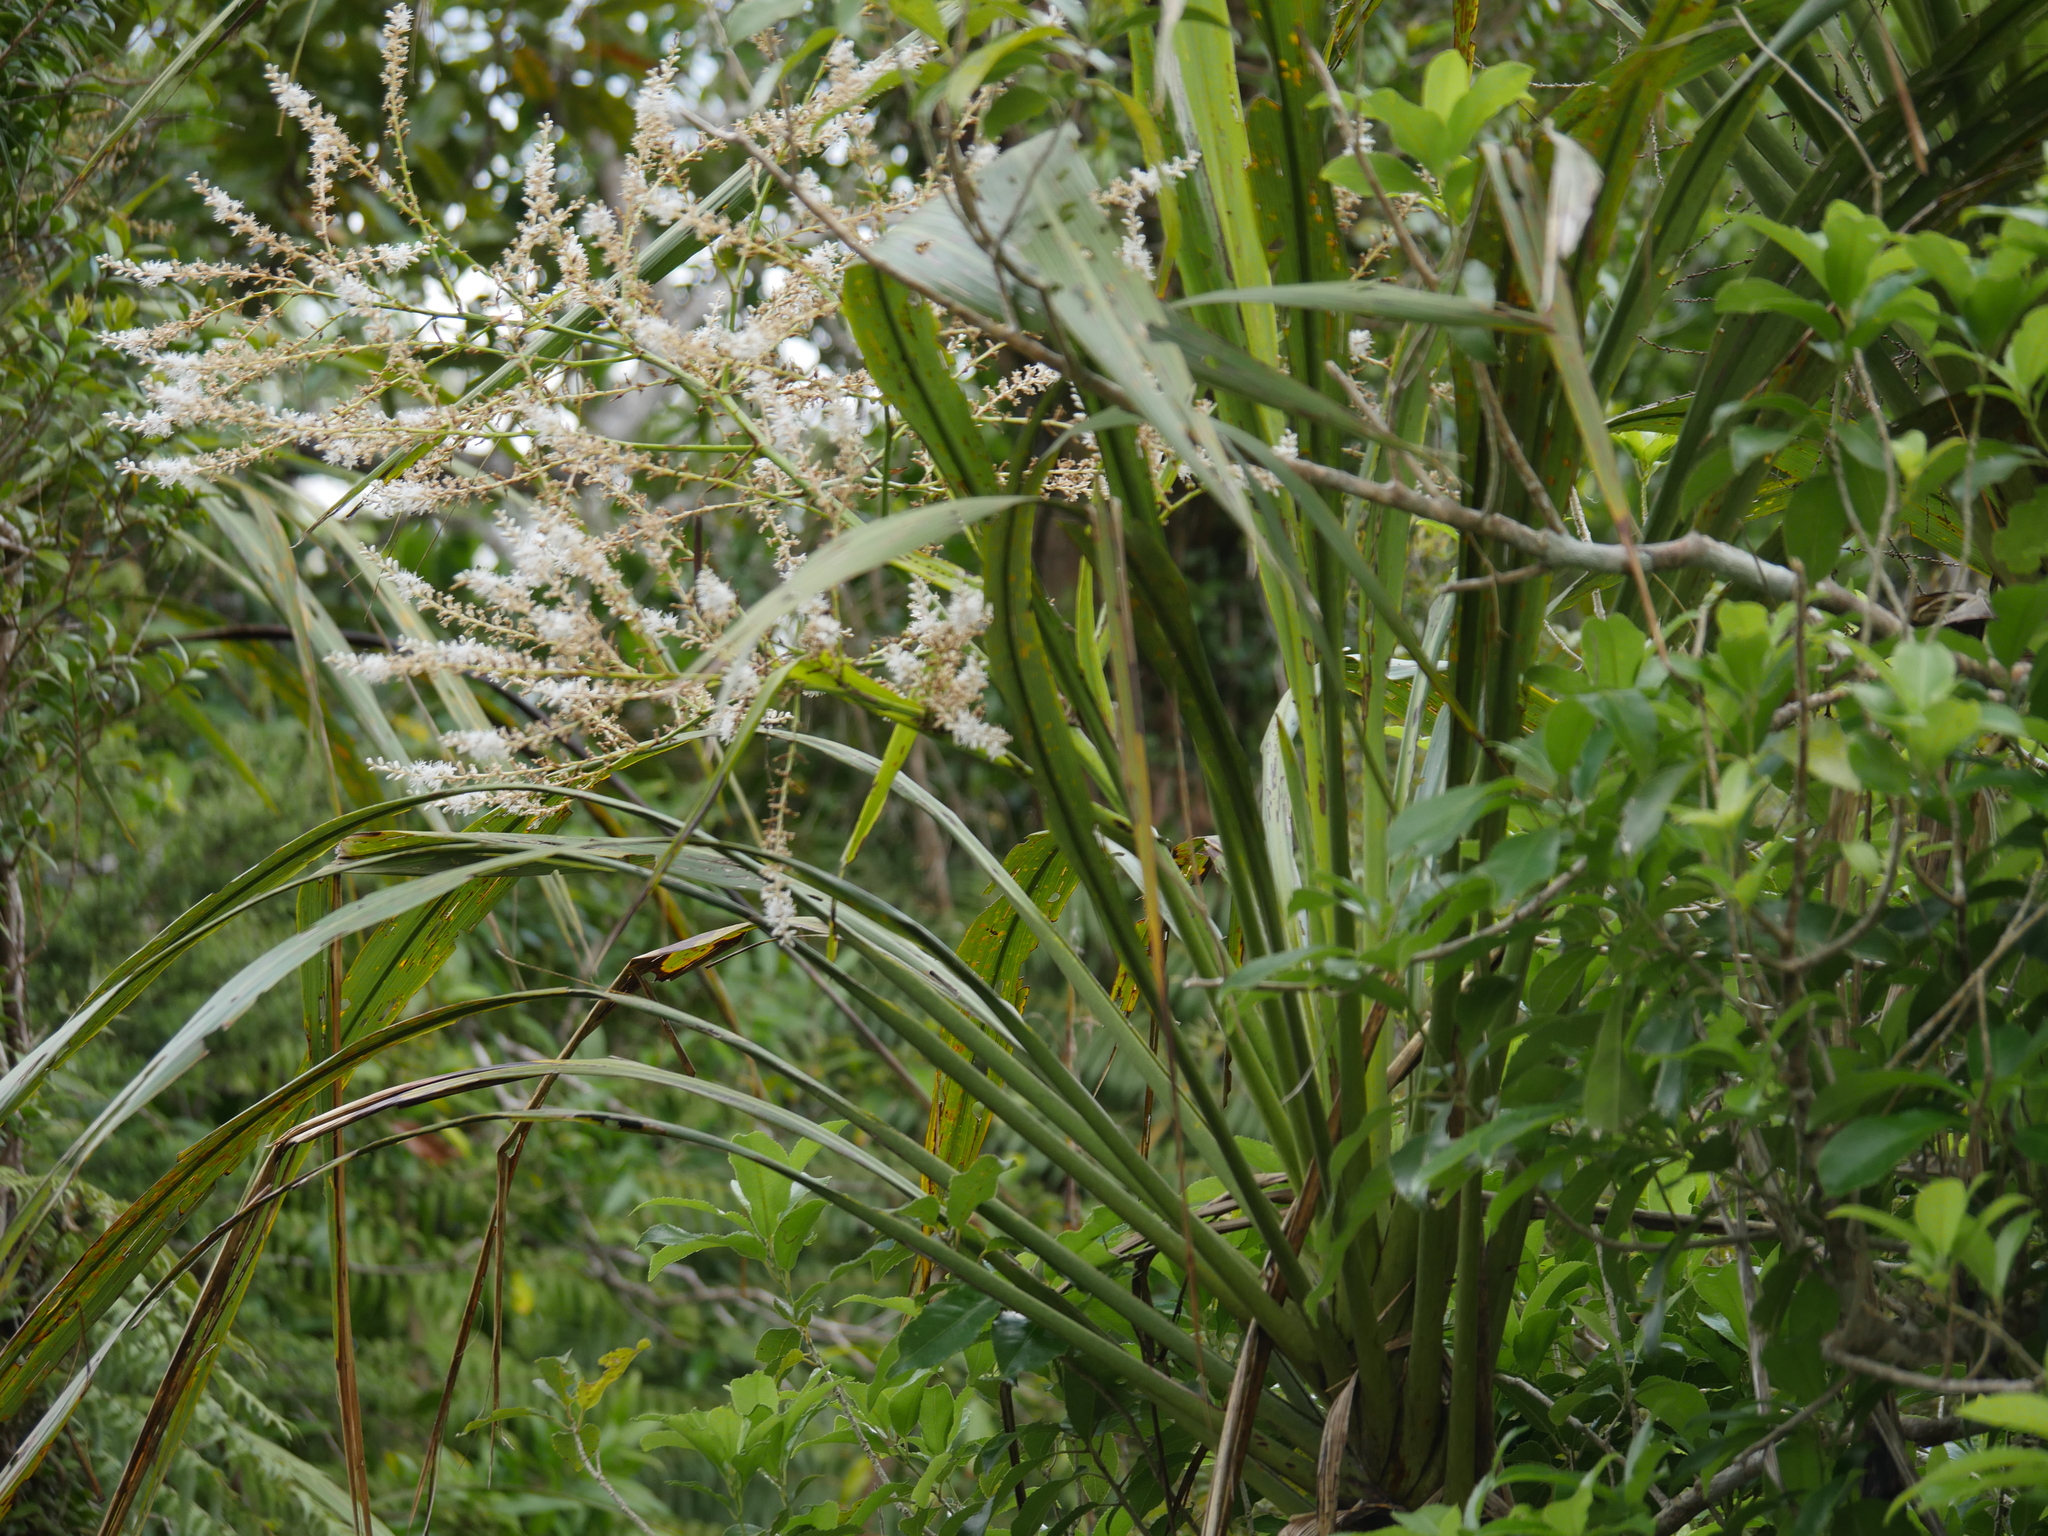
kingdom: Plantae
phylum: Tracheophyta
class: Liliopsida
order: Asparagales
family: Asparagaceae
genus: Cordyline
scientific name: Cordyline banksii
